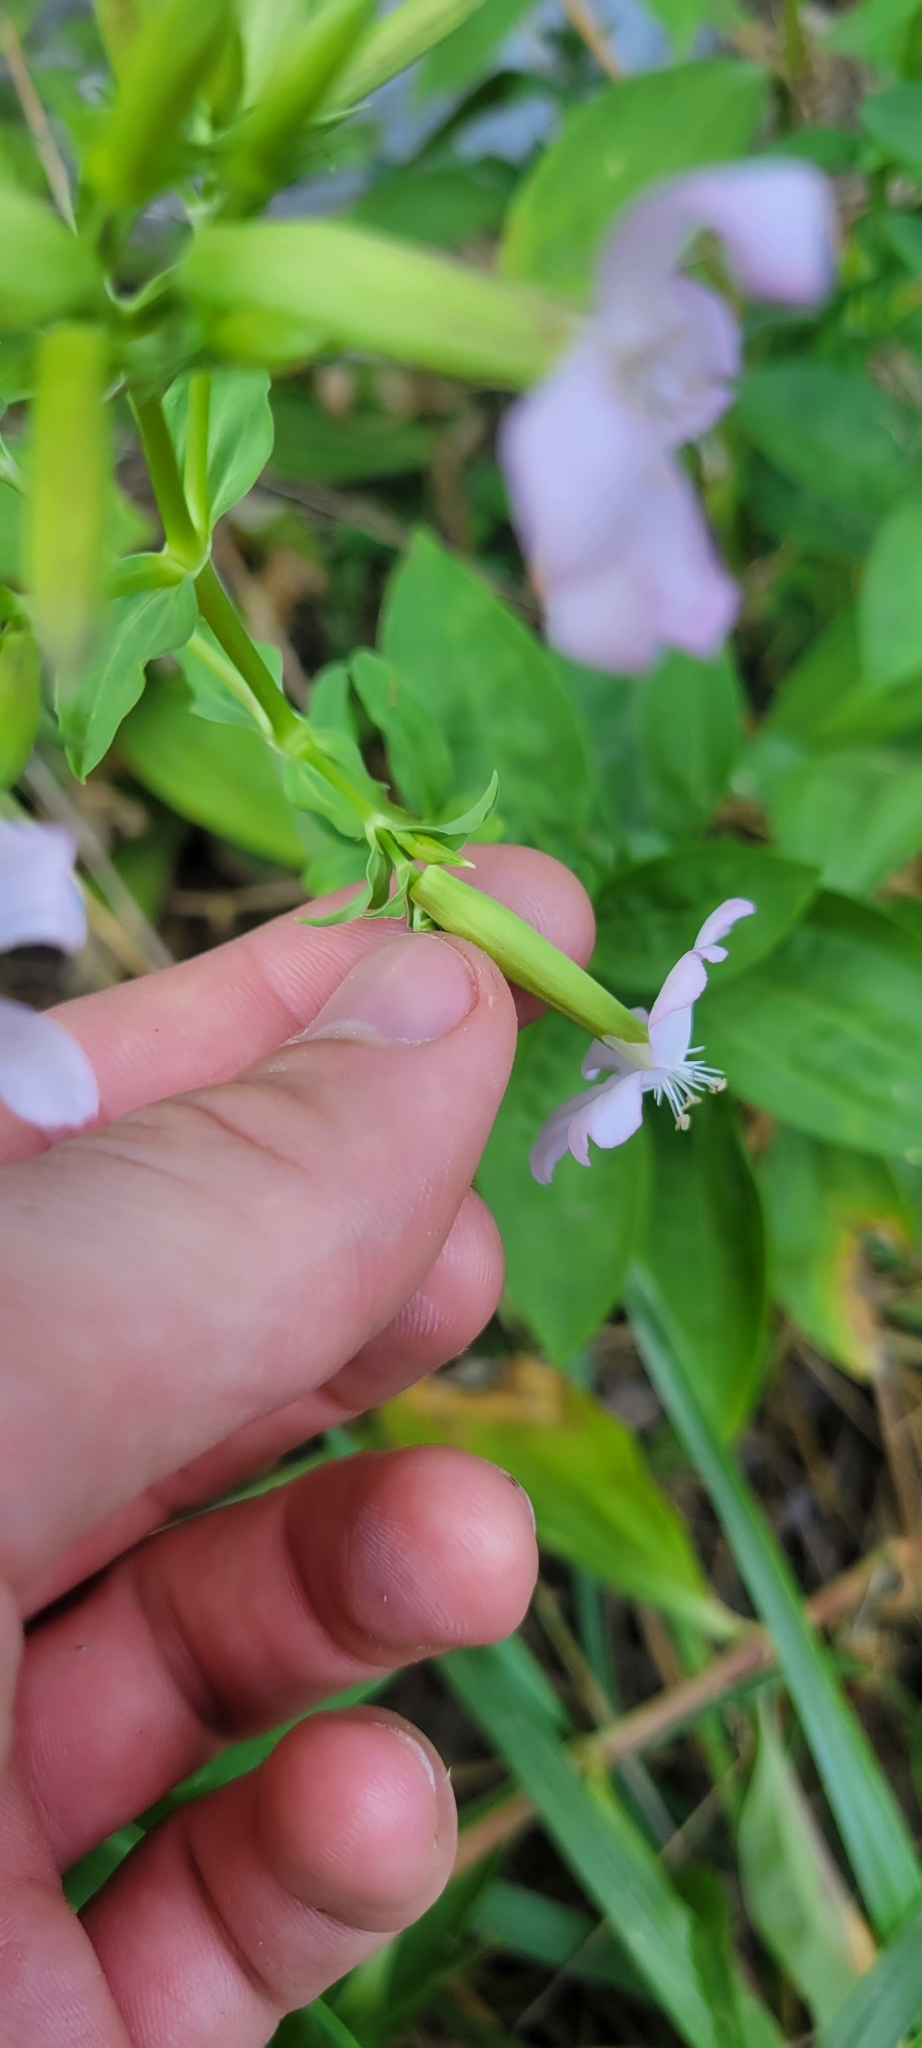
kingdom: Plantae
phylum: Tracheophyta
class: Magnoliopsida
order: Caryophyllales
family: Caryophyllaceae
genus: Saponaria
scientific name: Saponaria officinalis
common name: Soapwort
